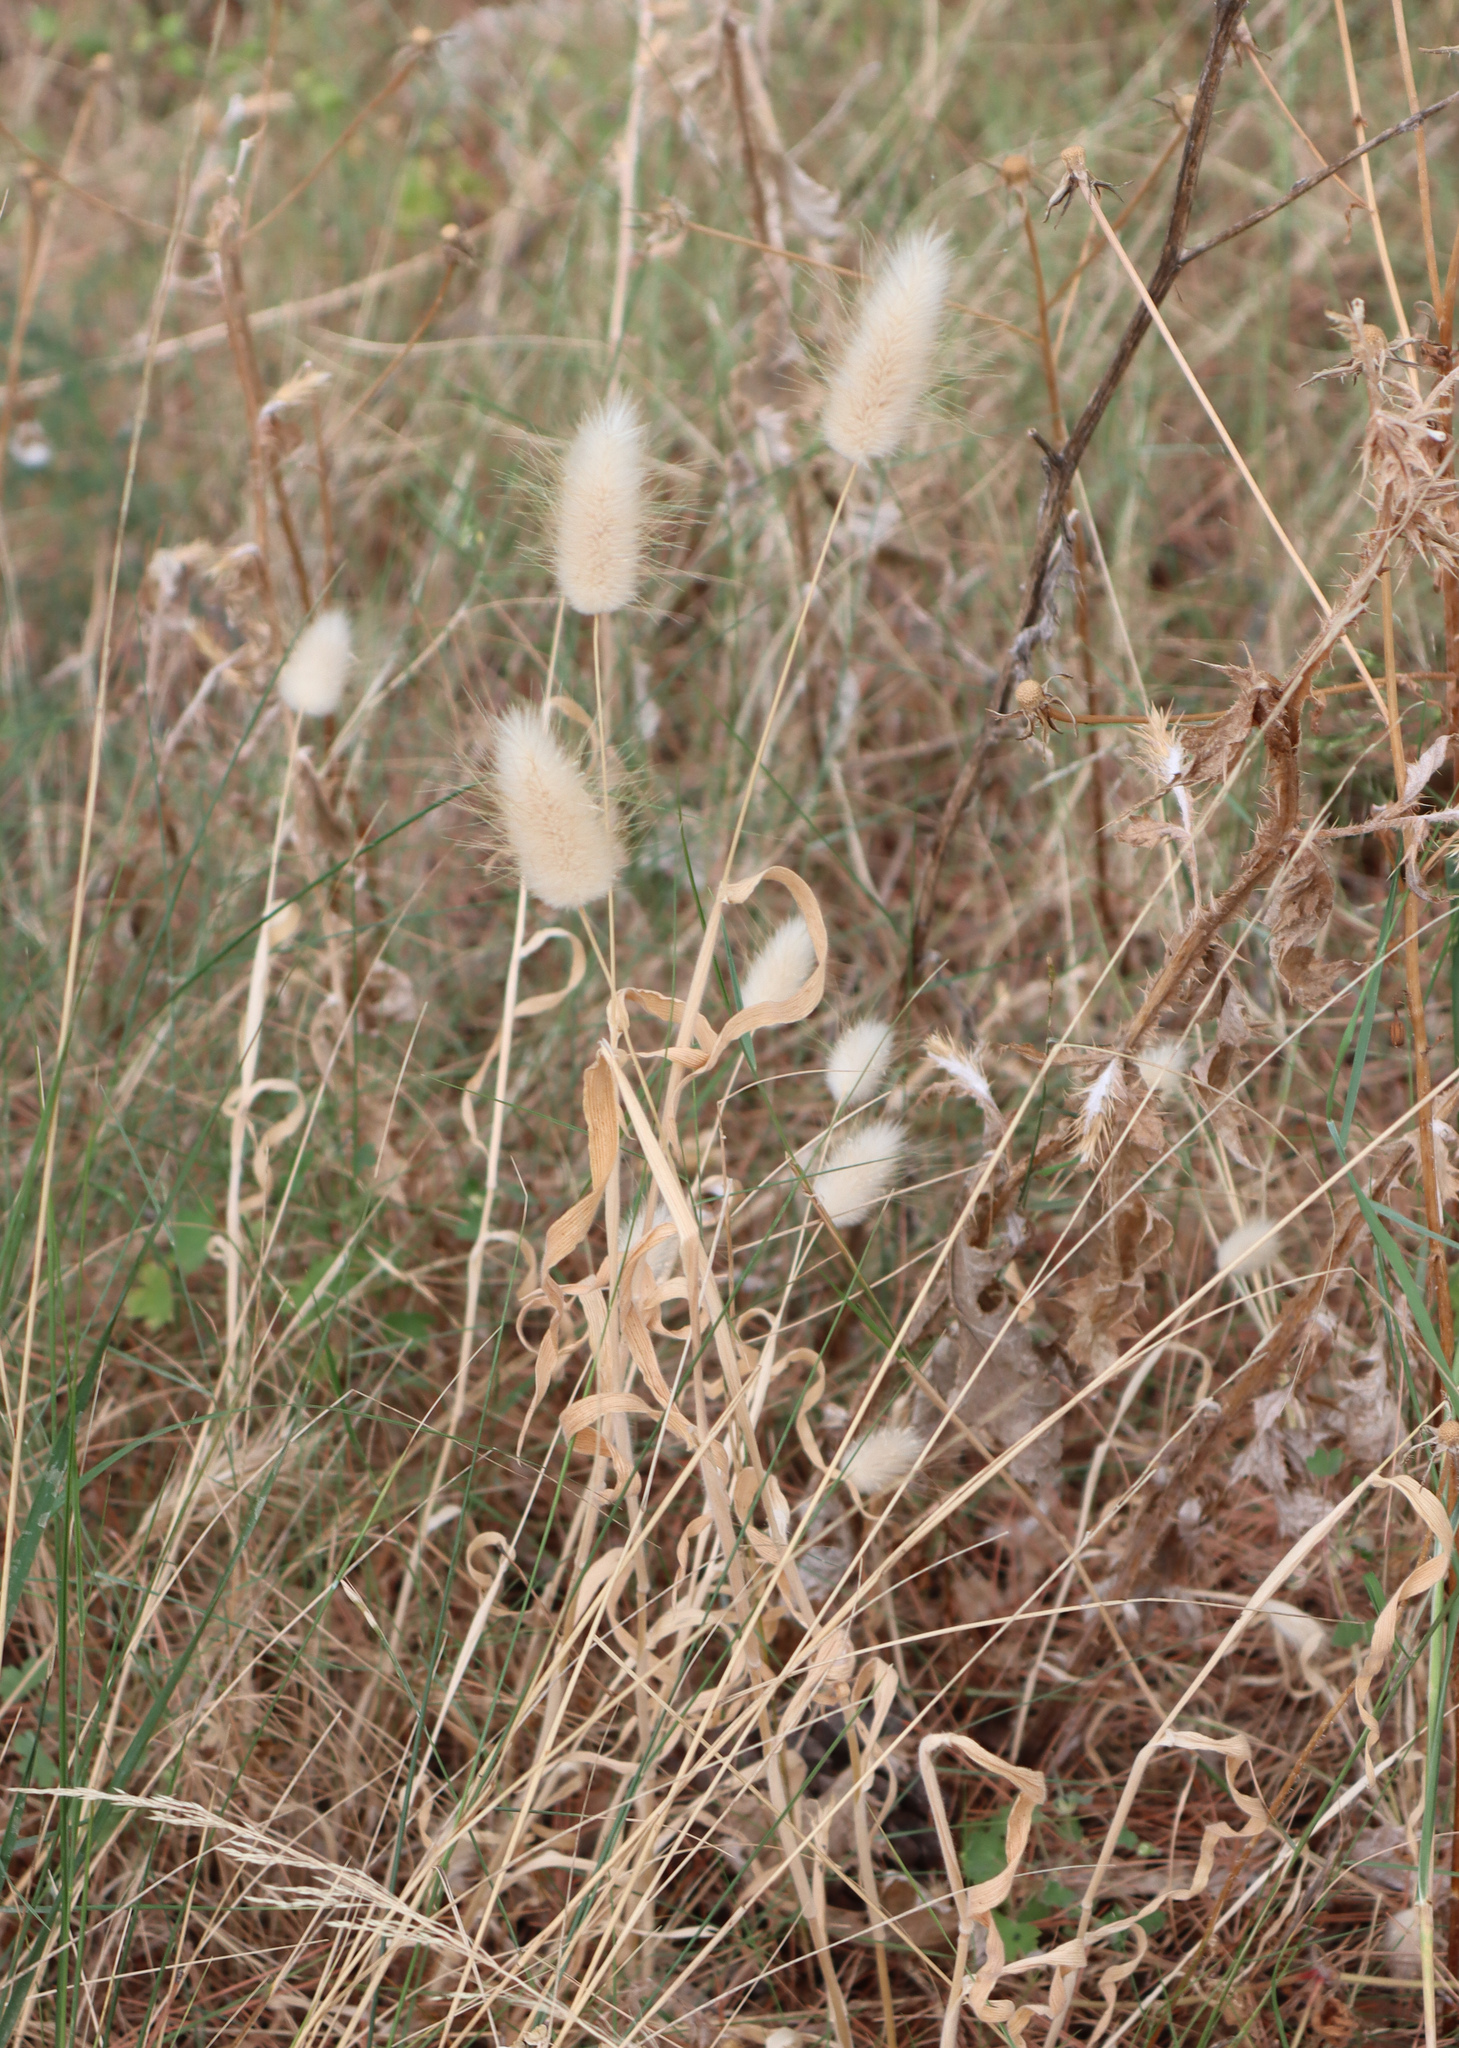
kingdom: Plantae
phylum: Tracheophyta
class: Liliopsida
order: Poales
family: Poaceae
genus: Lagurus
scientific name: Lagurus ovatus
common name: Hare's-tail
